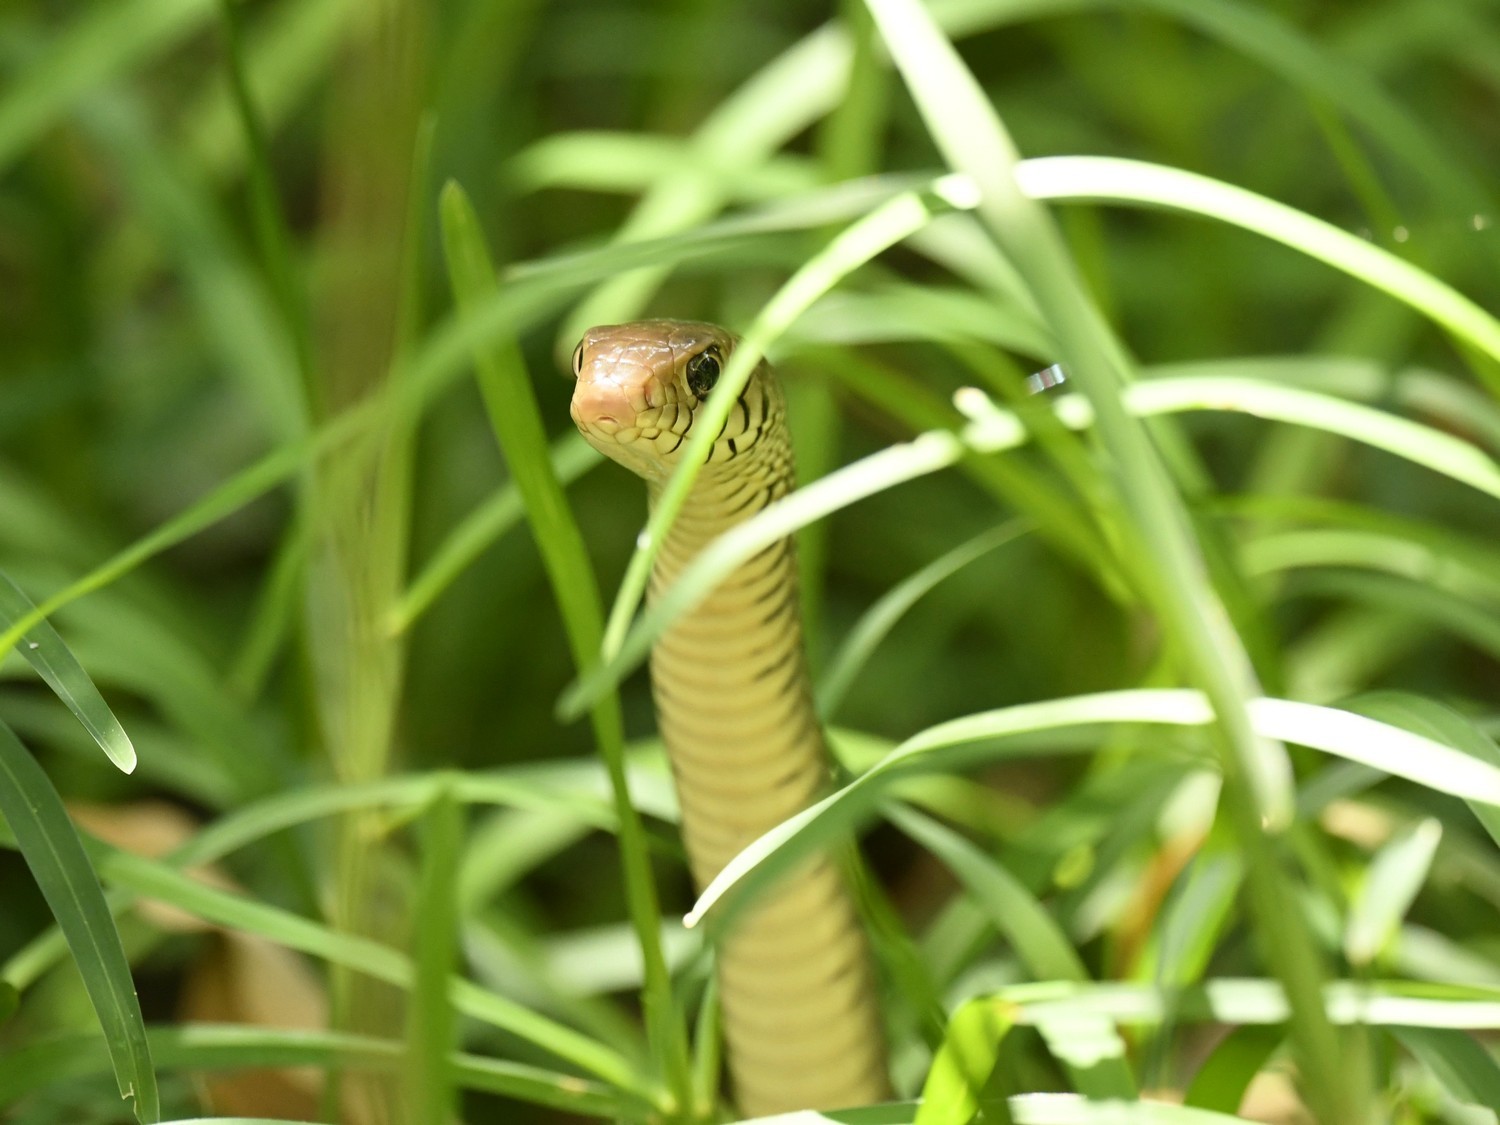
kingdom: Animalia
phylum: Chordata
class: Squamata
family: Colubridae
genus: Ptyas
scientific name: Ptyas mucosa
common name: Oriental ratsnake
